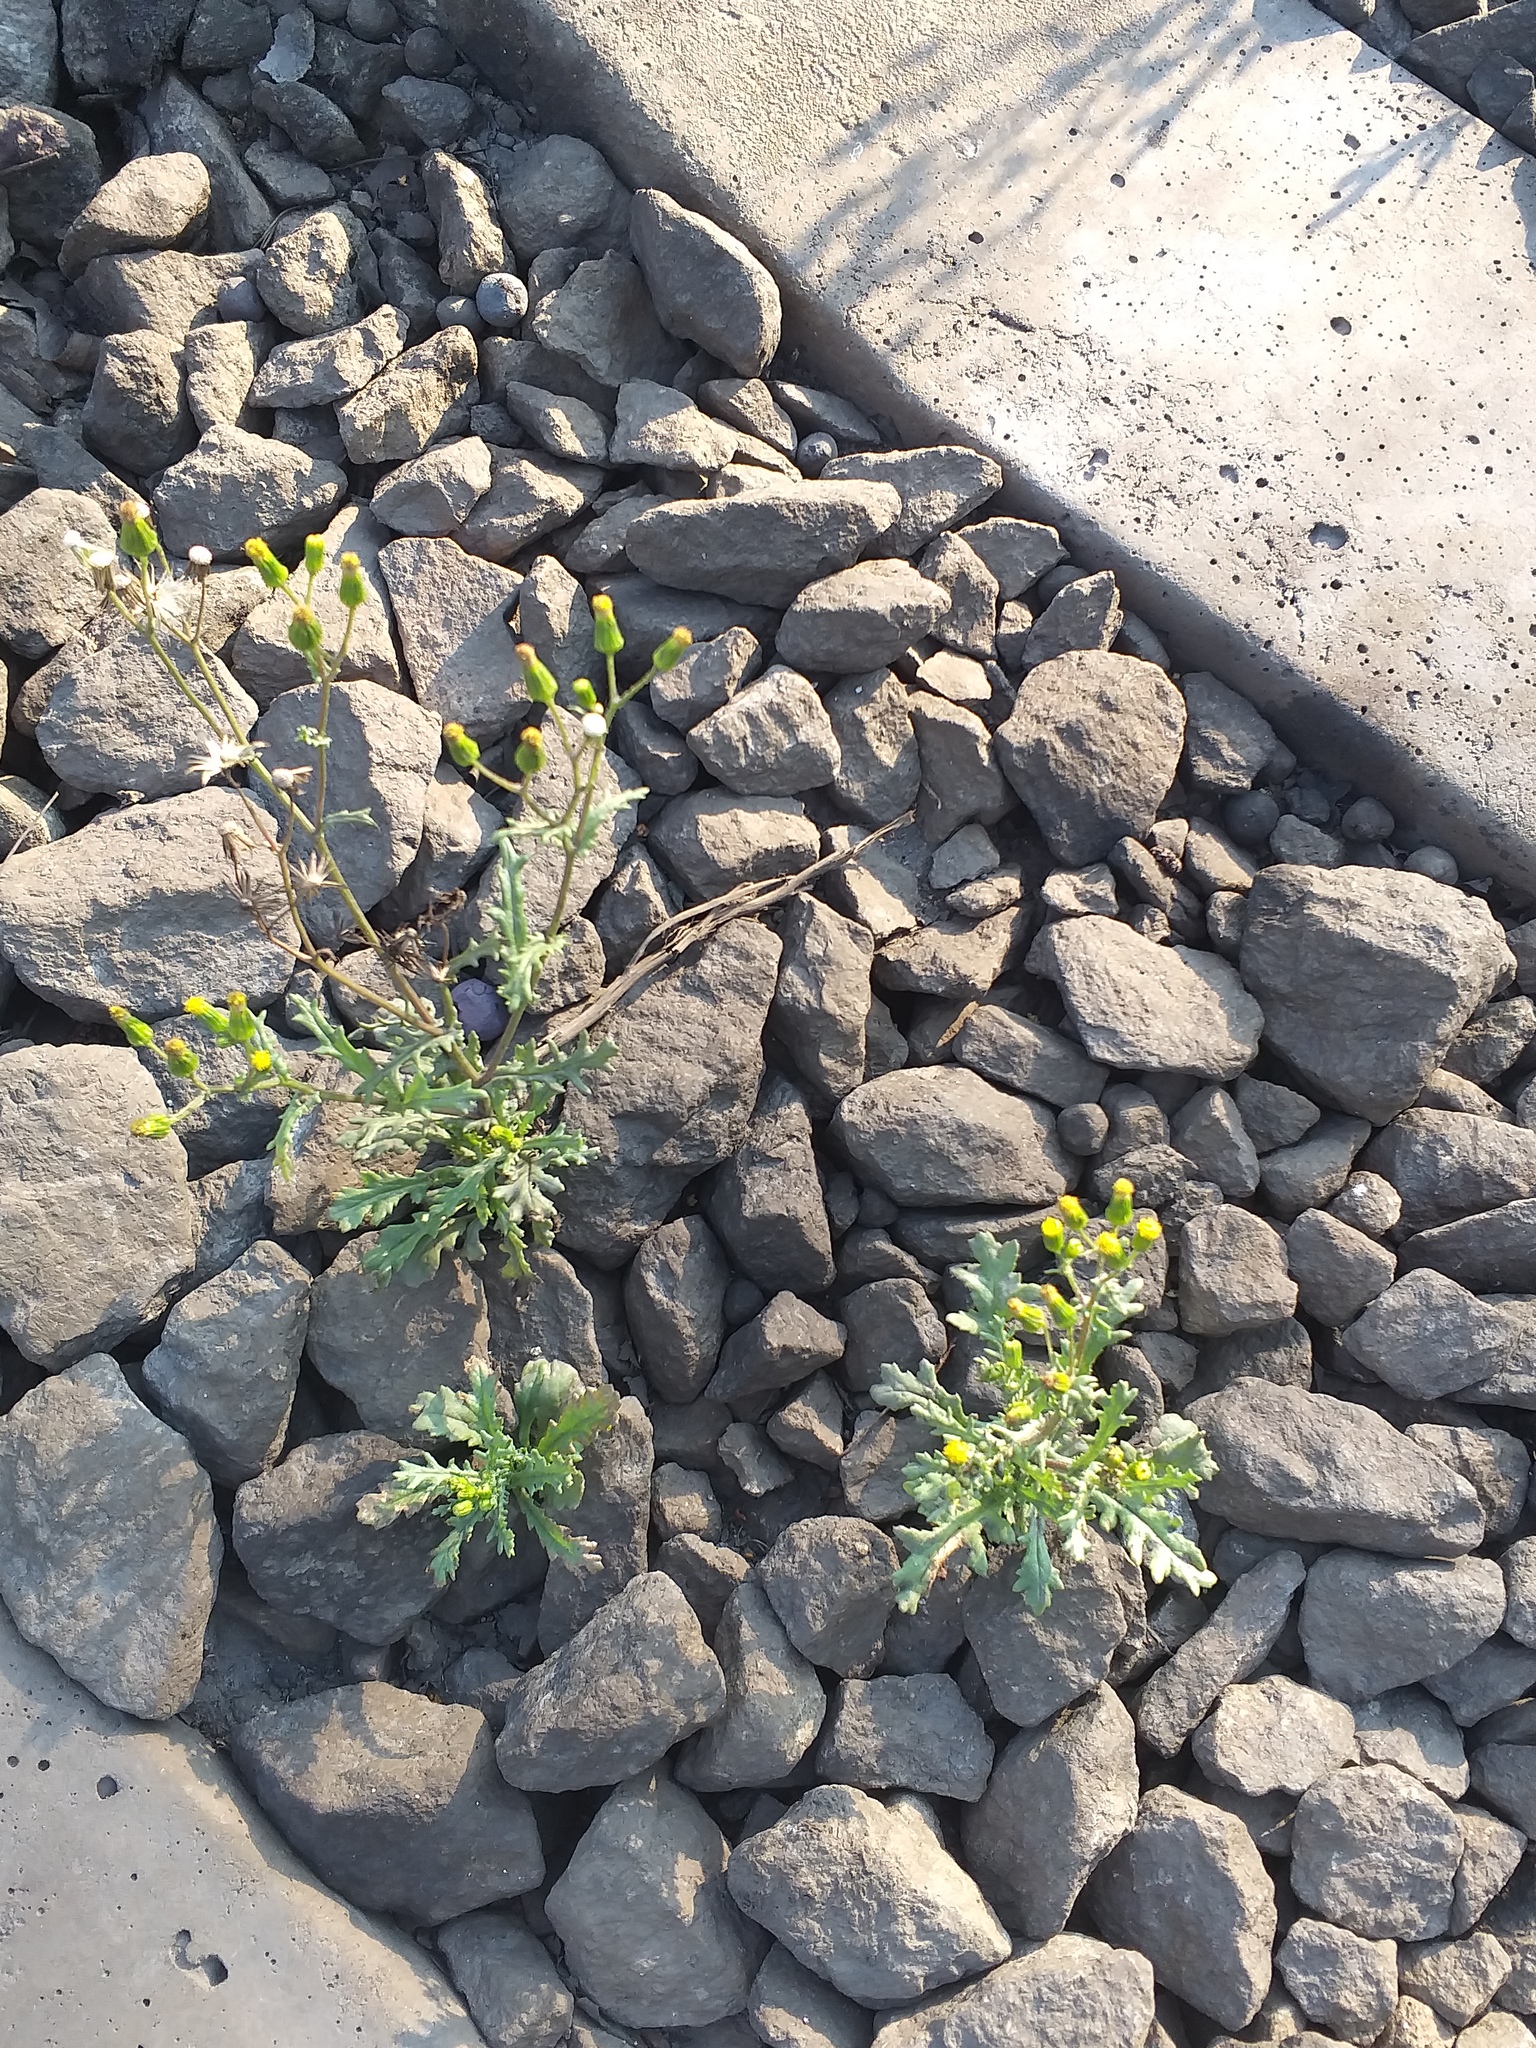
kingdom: Plantae
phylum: Tracheophyta
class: Magnoliopsida
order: Asterales
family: Asteraceae
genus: Senecio
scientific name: Senecio vulgaris
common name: Old-man-in-the-spring
